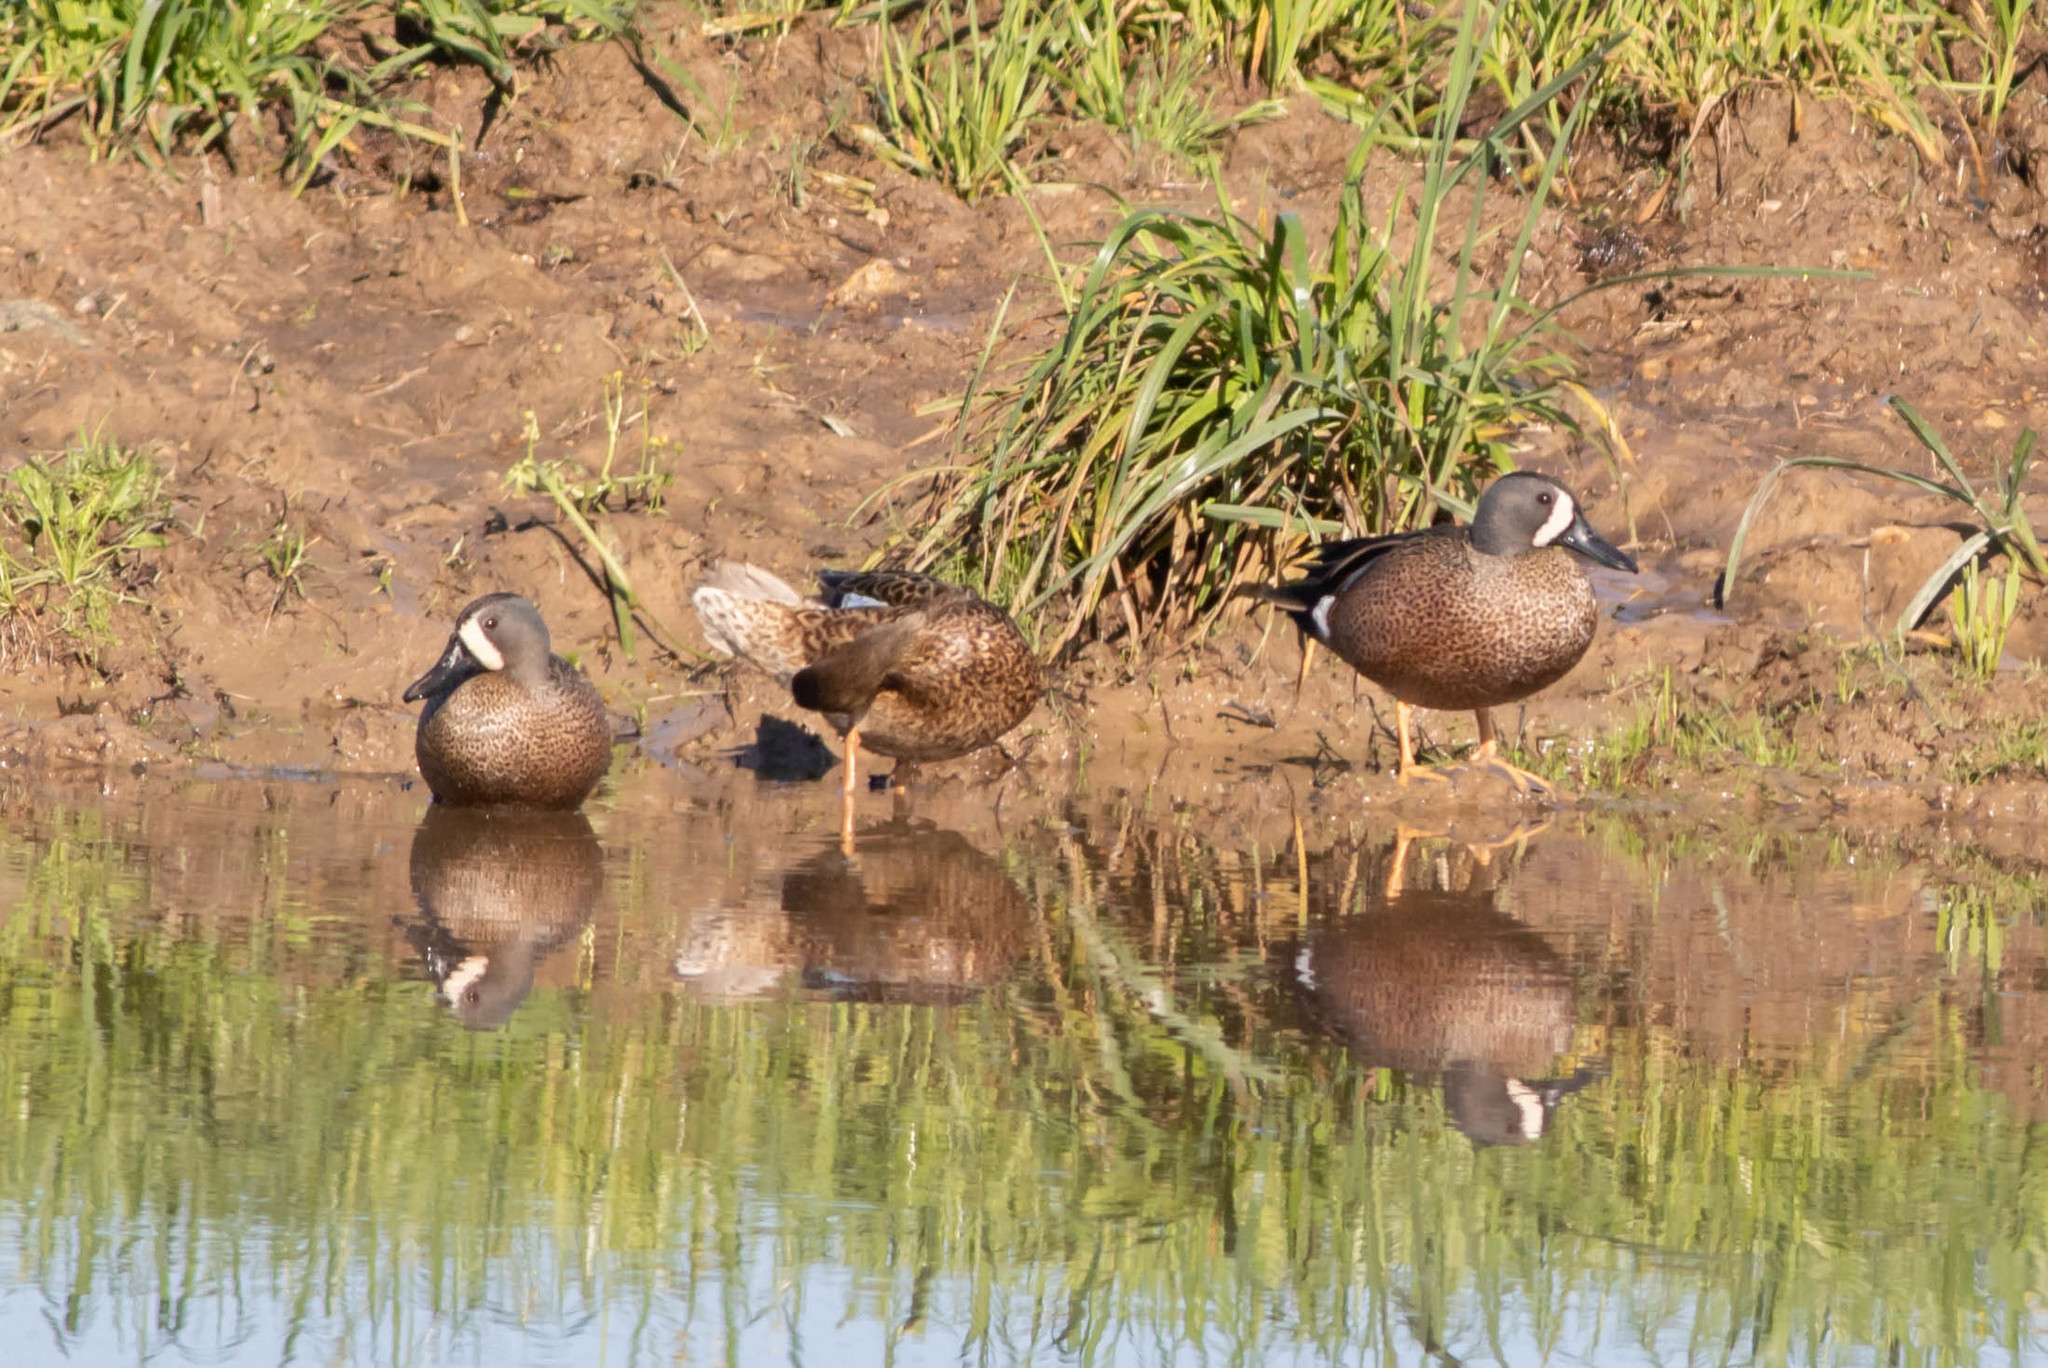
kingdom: Animalia
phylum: Chordata
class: Aves
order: Anseriformes
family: Anatidae
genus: Spatula
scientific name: Spatula discors
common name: Blue-winged teal
